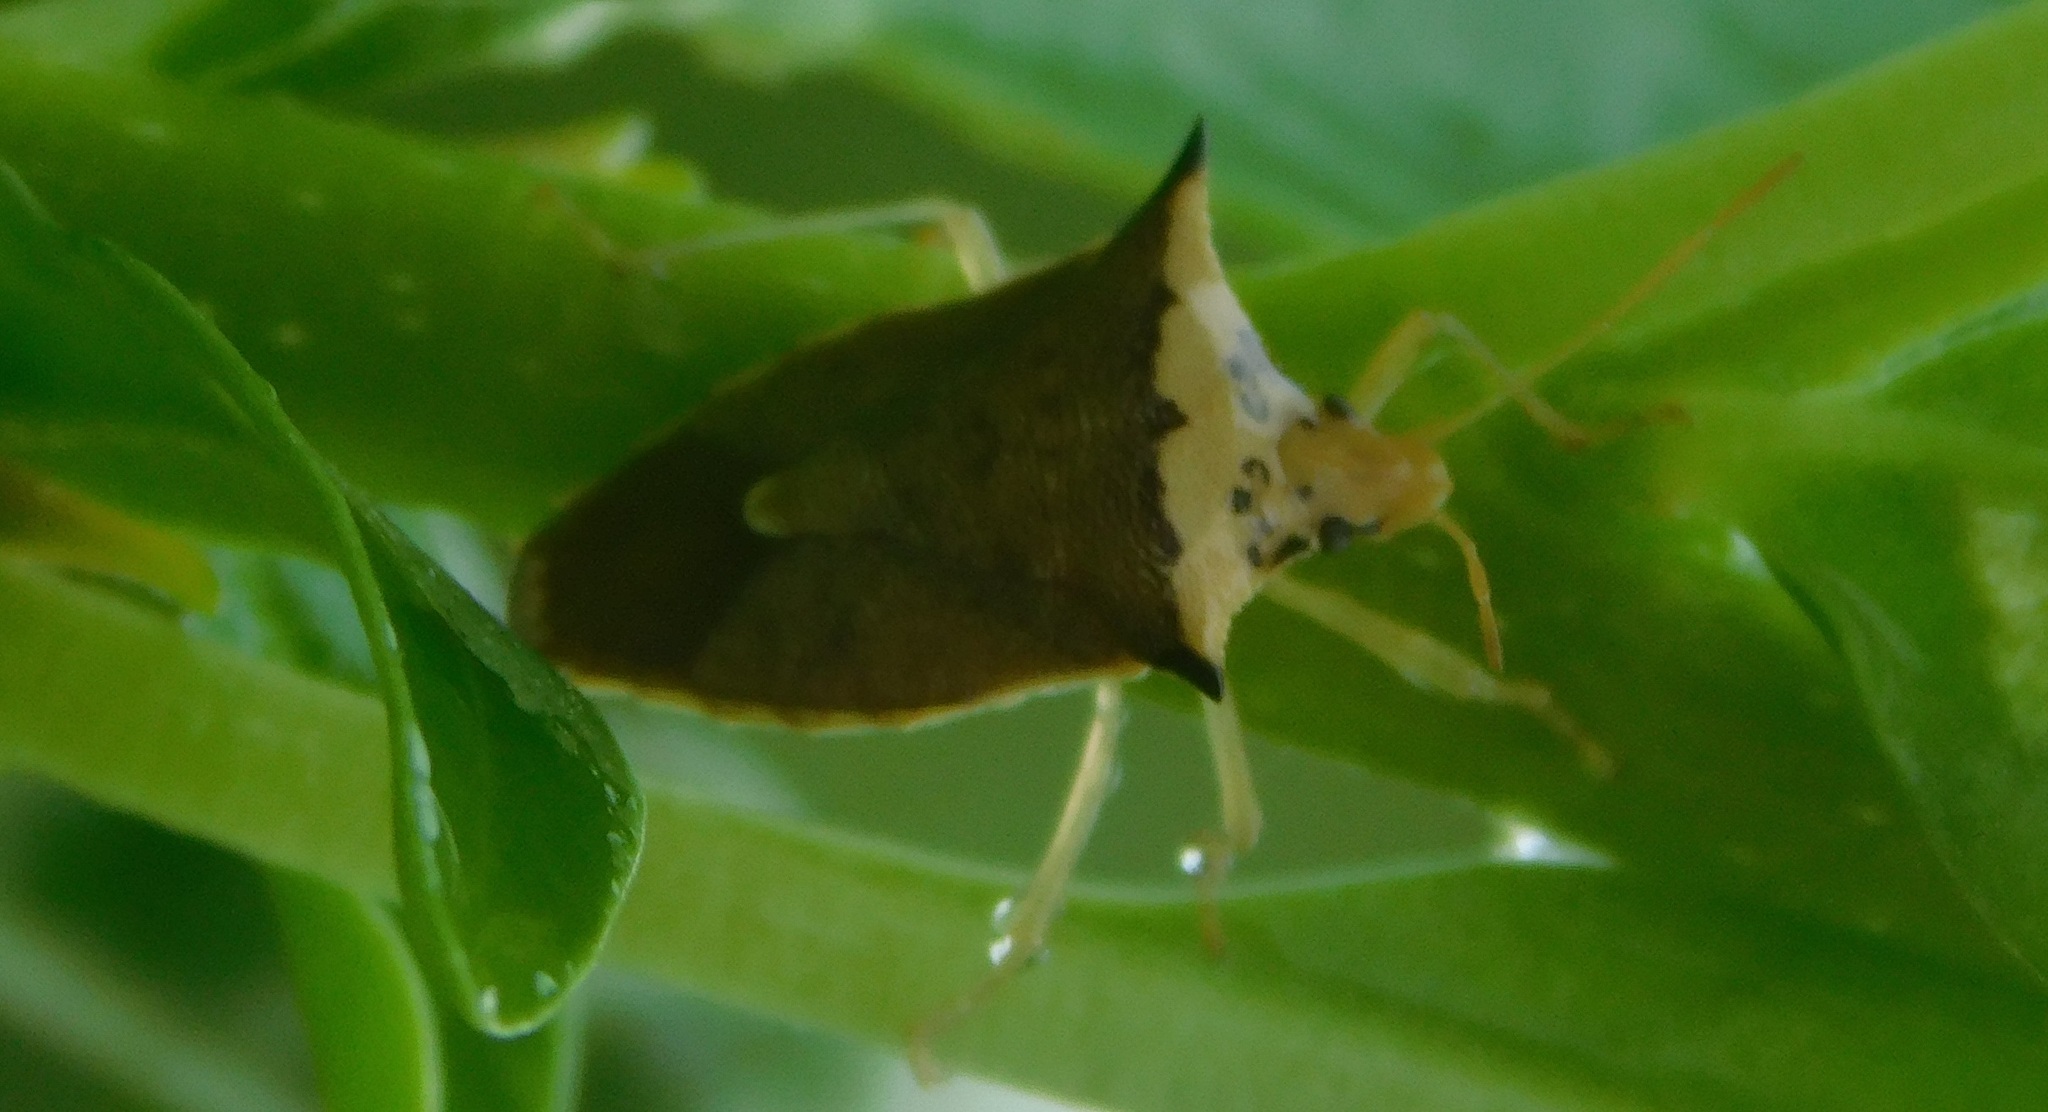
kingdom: Animalia
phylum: Arthropoda
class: Insecta
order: Hemiptera
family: Pentatomidae
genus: Euschistus
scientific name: Euschistus acuminatus
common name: Stink bug
